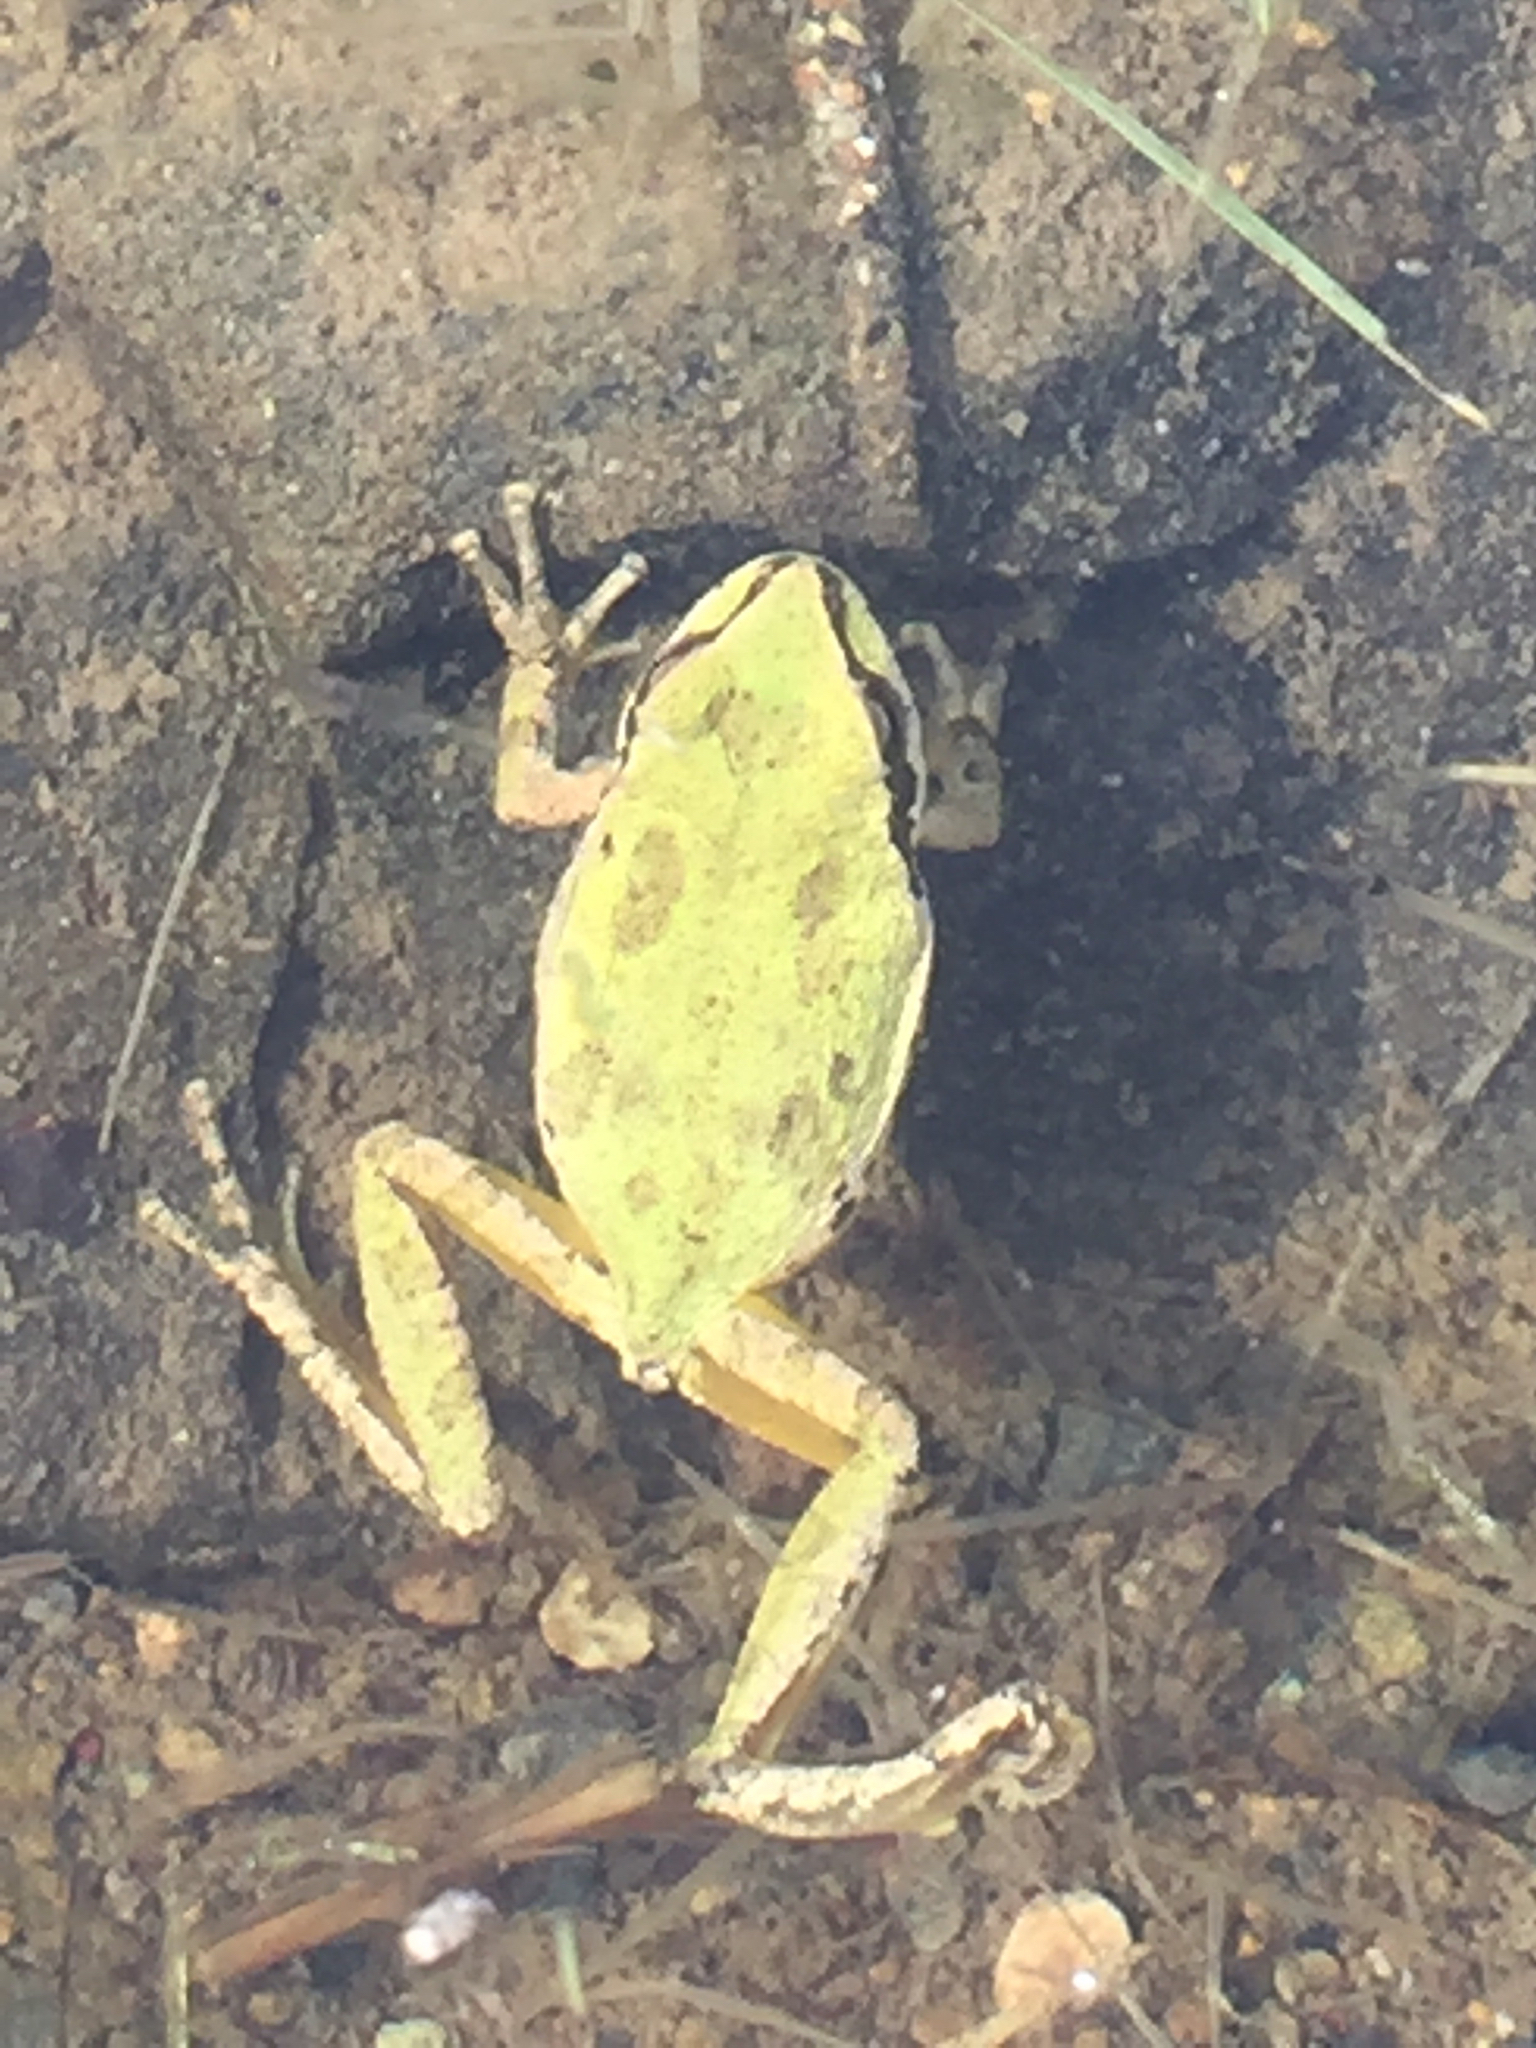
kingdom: Animalia
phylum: Chordata
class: Amphibia
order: Anura
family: Hylidae
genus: Pseudacris
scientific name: Pseudacris regilla
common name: Pacific chorus frog
